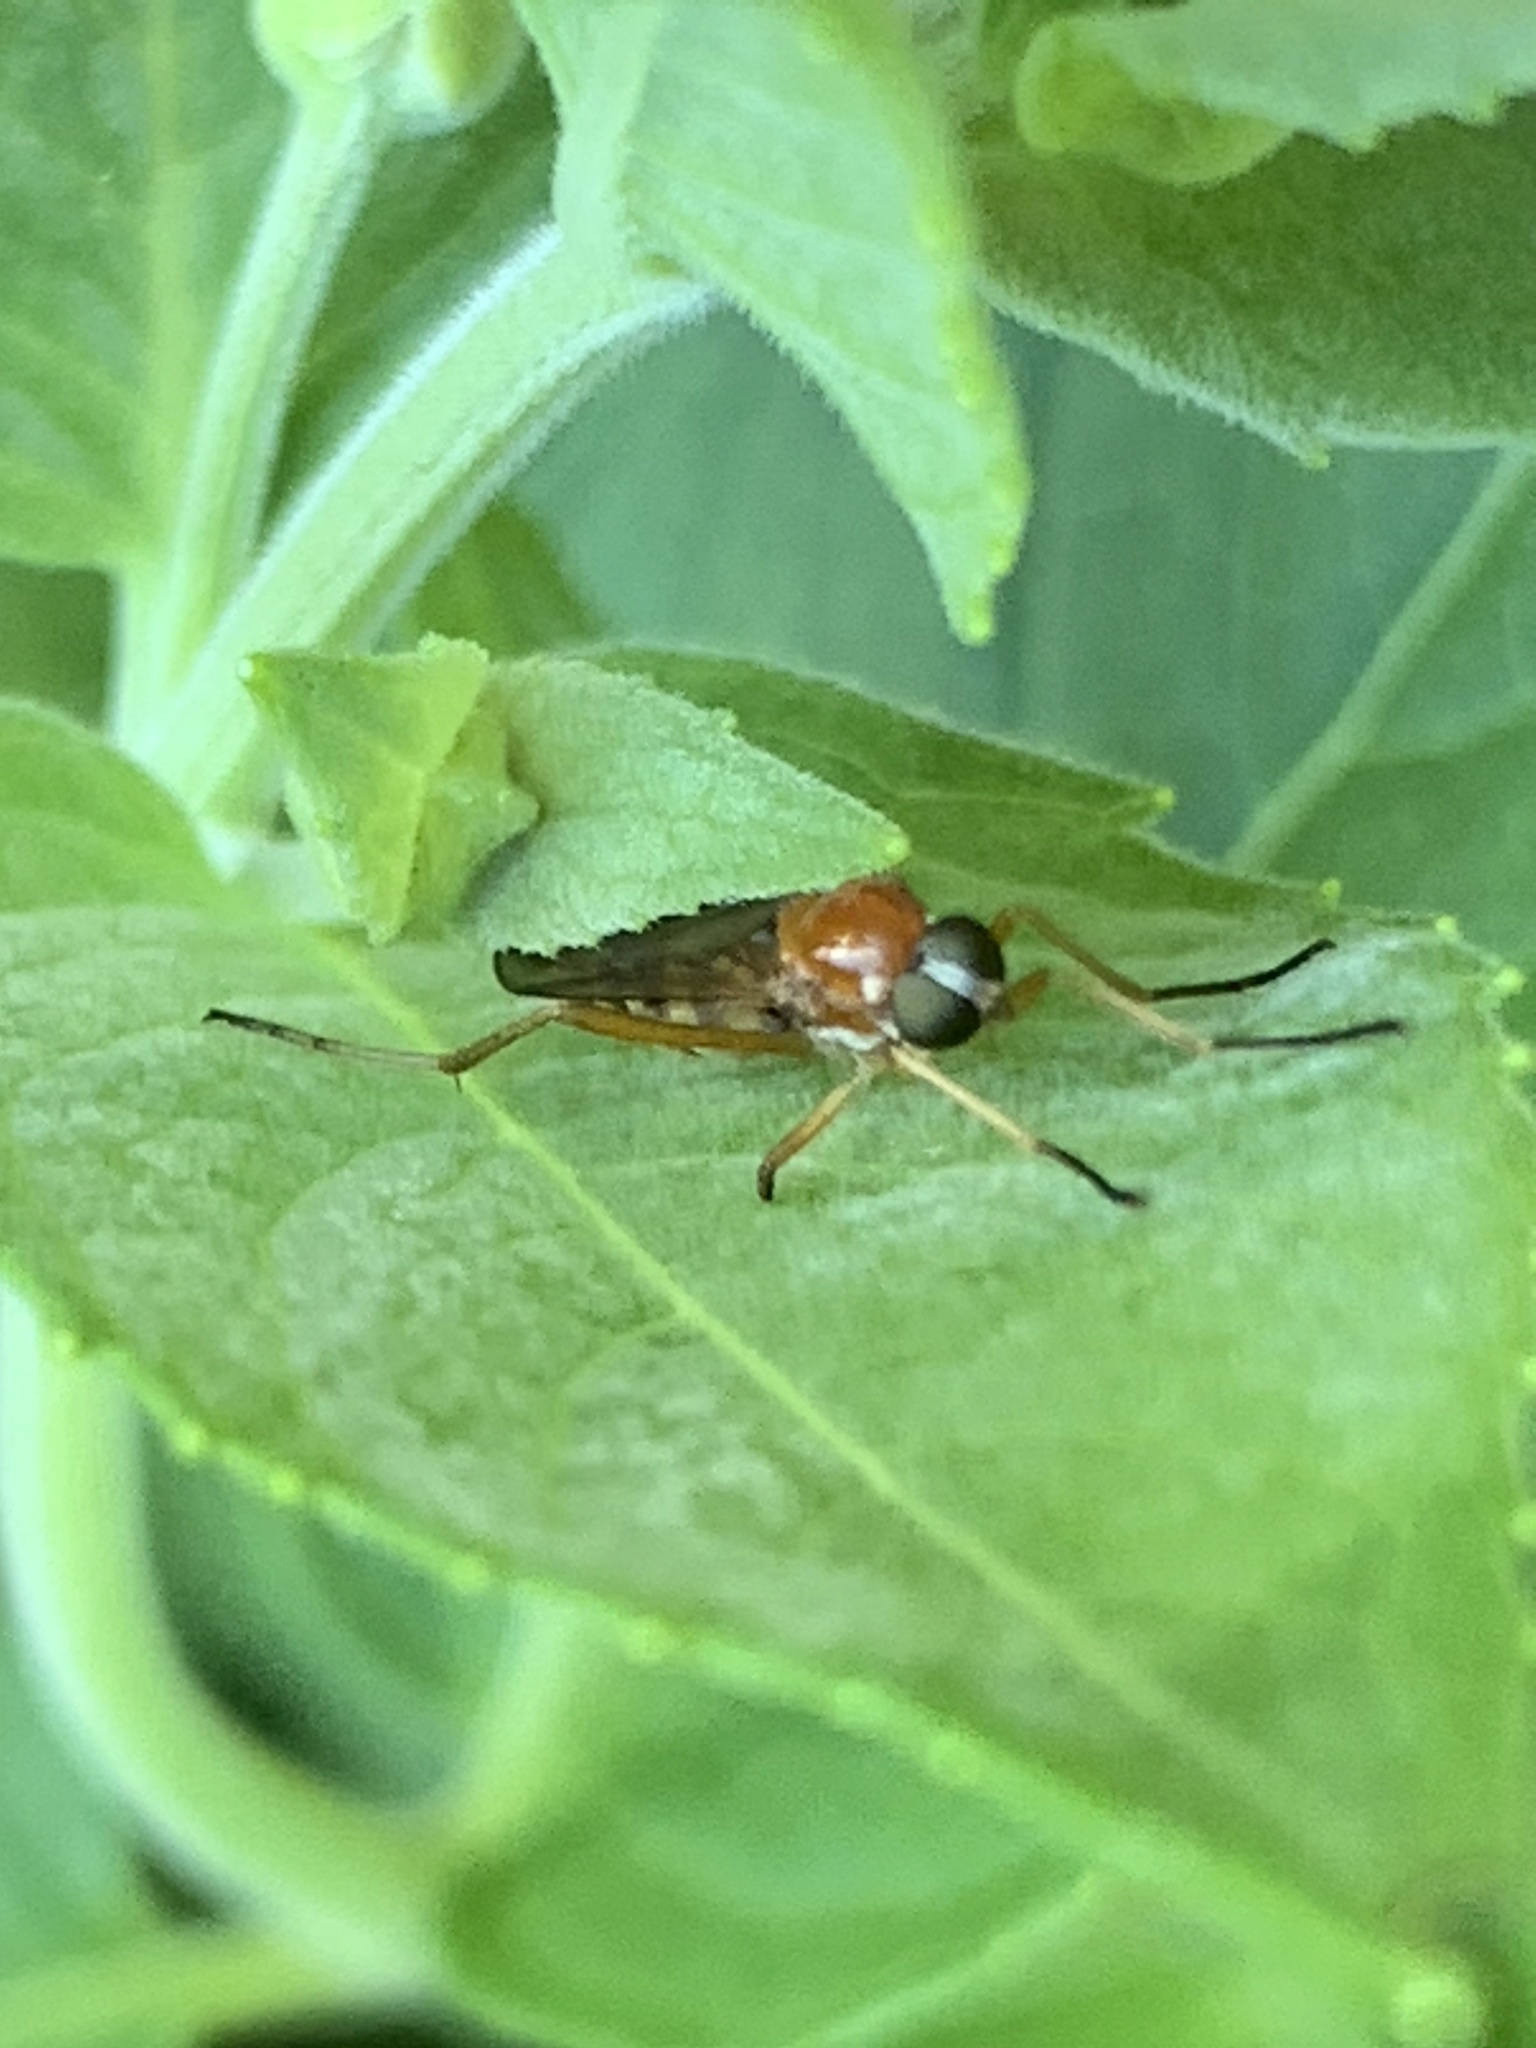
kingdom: Animalia
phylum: Arthropoda
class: Insecta
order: Diptera
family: Xylophagidae
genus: Dialysis
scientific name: Dialysis elongata
